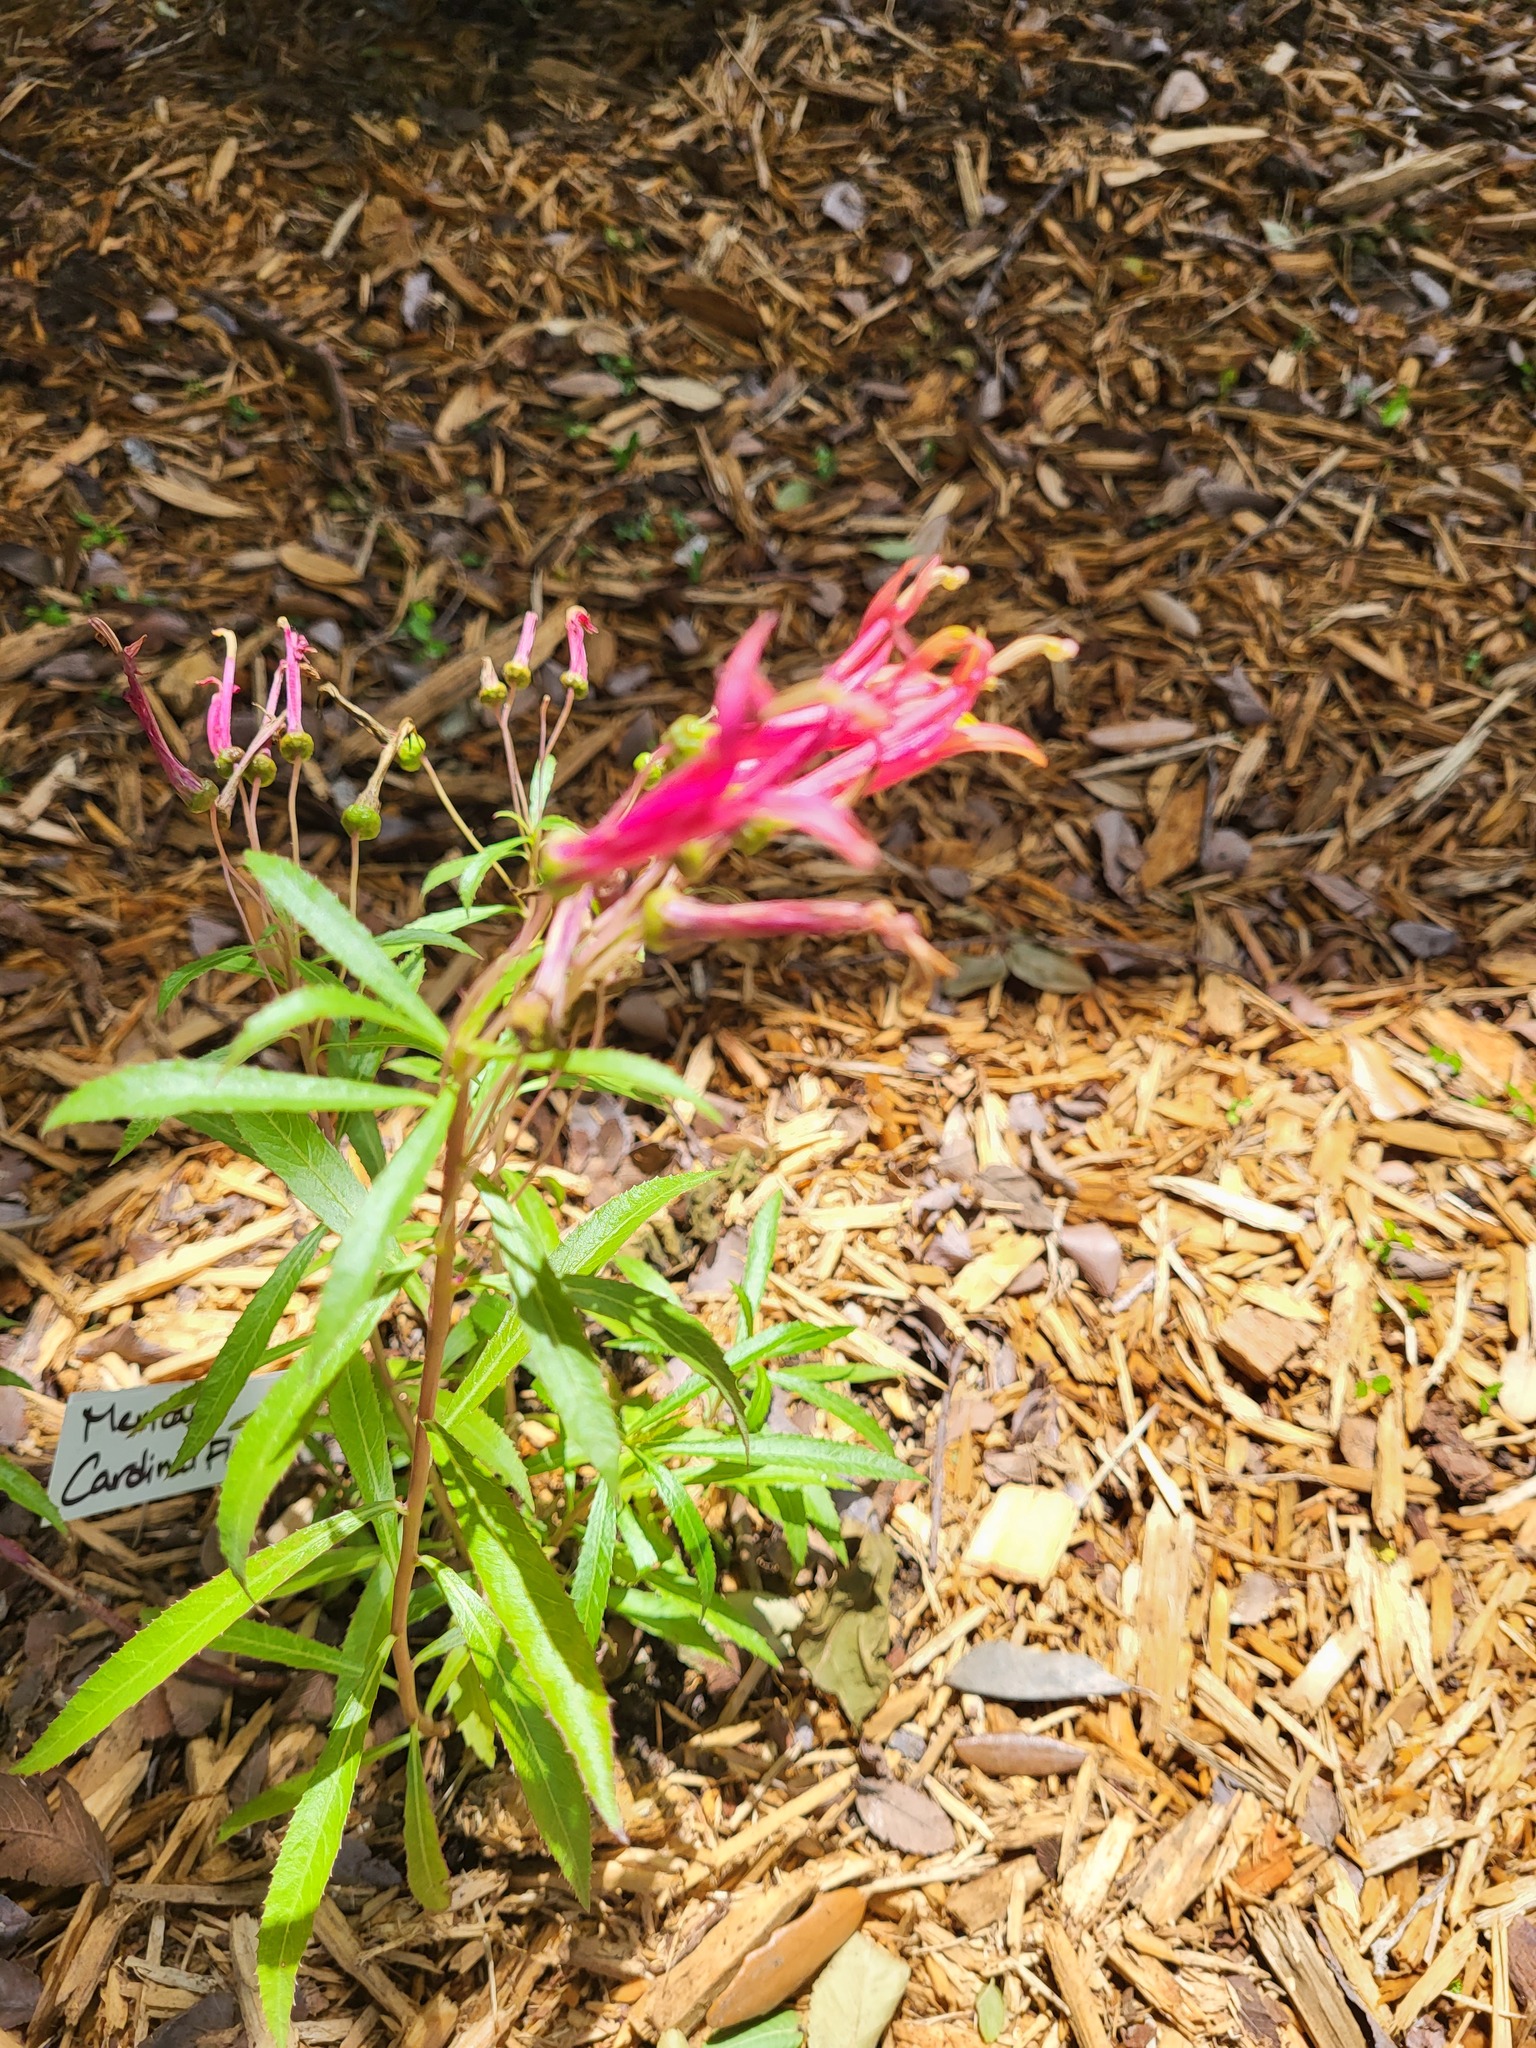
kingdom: Plantae
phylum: Tracheophyta
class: Magnoliopsida
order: Asterales
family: Campanulaceae
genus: Lobelia
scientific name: Lobelia cardinalis
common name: Cardinal flower
